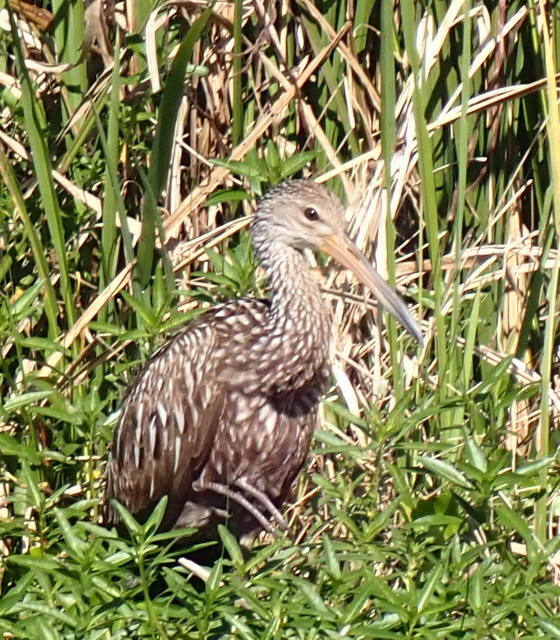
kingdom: Animalia
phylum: Chordata
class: Aves
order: Gruiformes
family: Aramidae
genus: Aramus
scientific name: Aramus guarauna
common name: Limpkin
